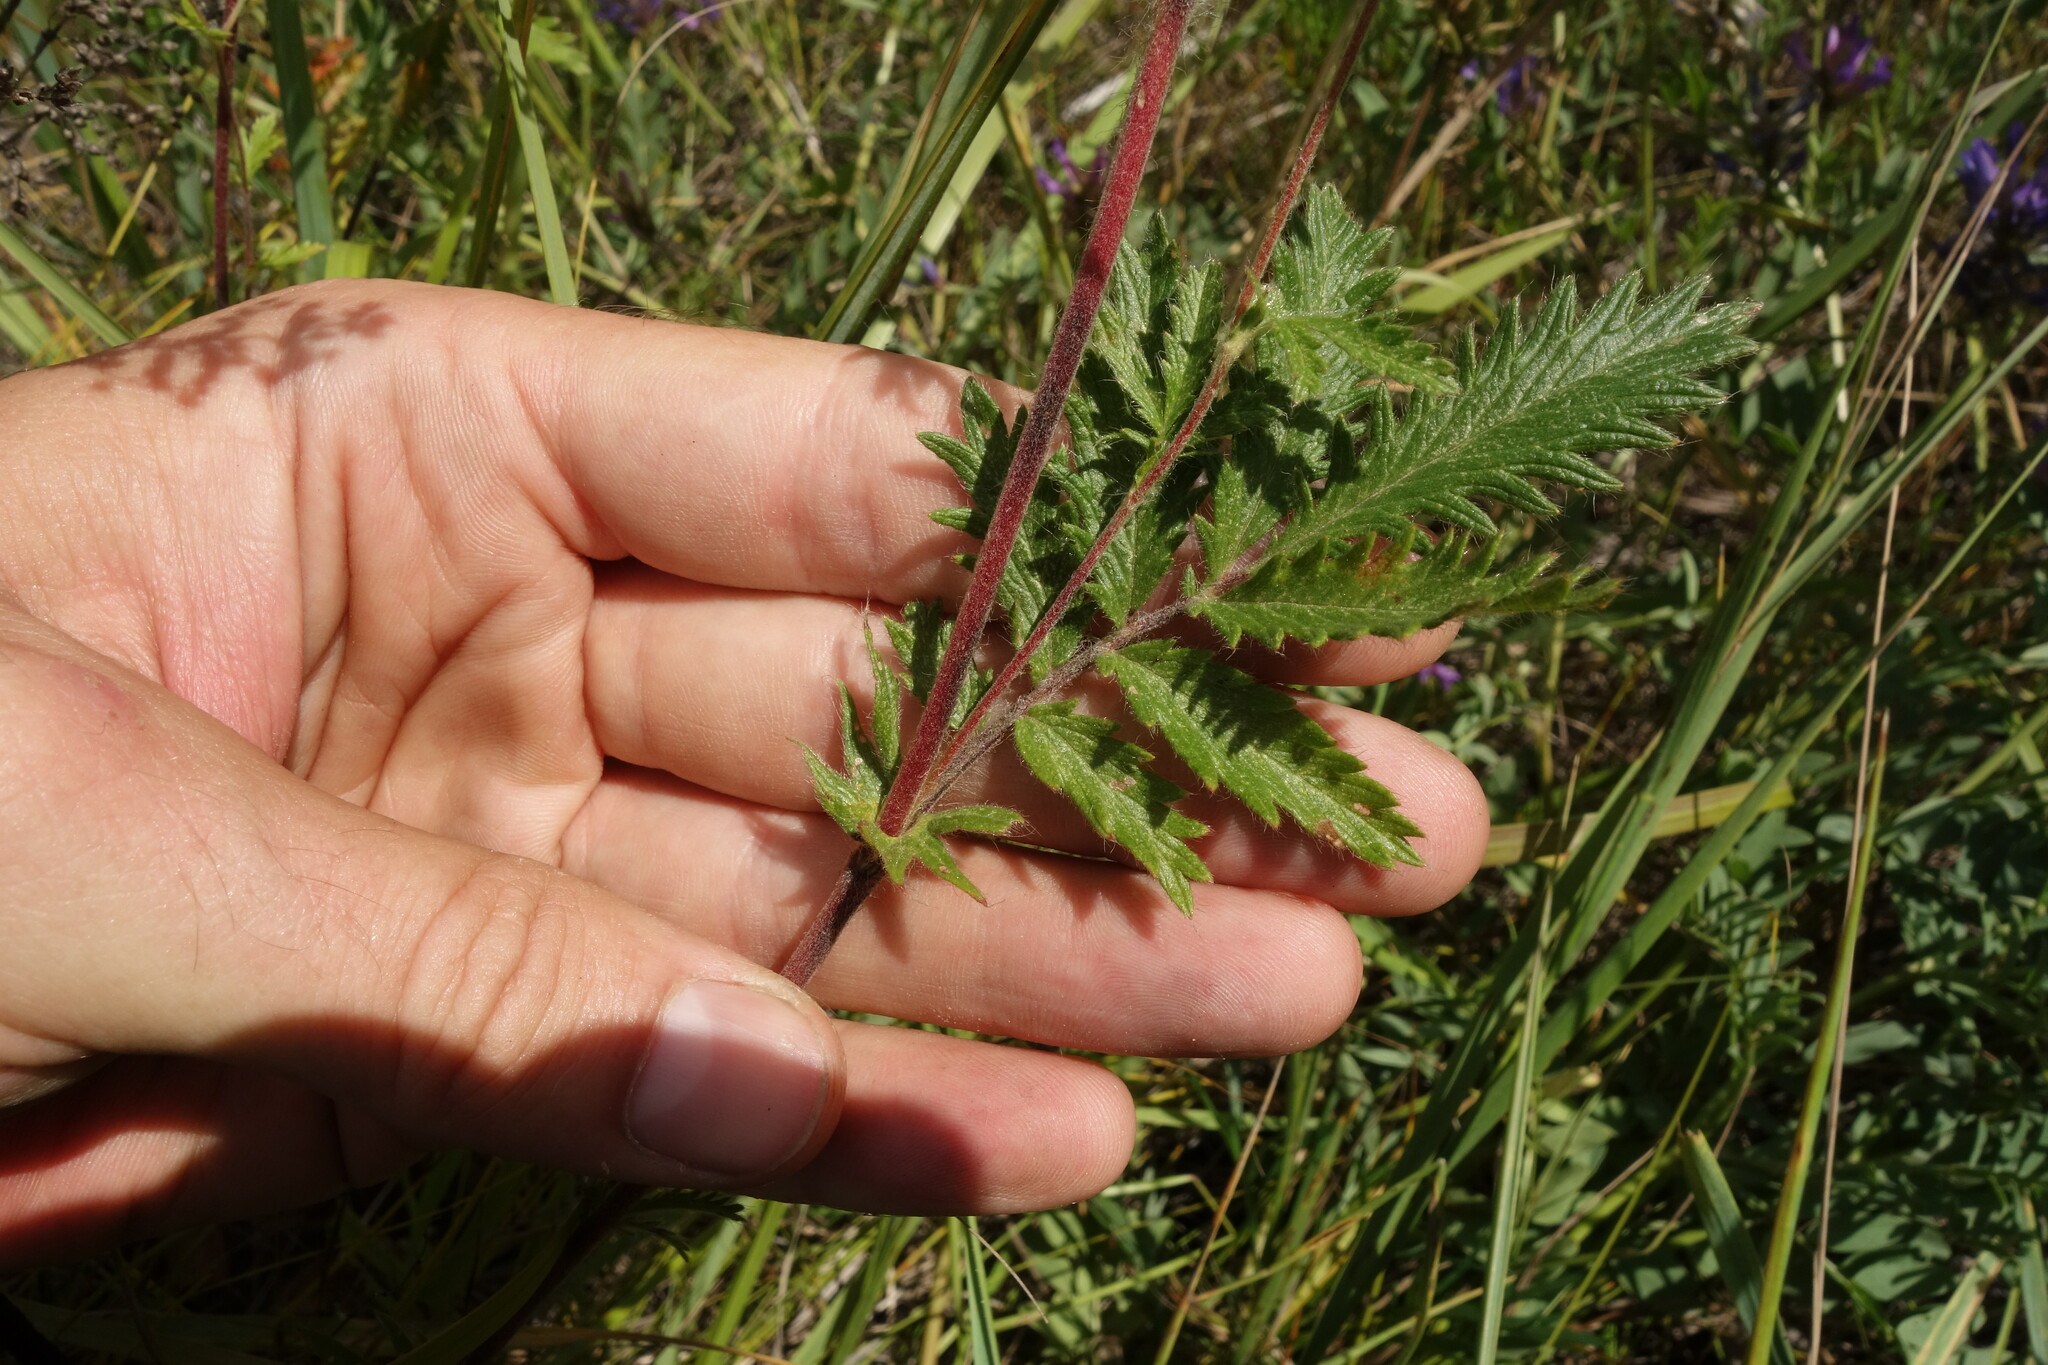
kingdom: Plantae
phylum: Tracheophyta
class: Magnoliopsida
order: Rosales
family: Rosaceae
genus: Potentilla
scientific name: Potentilla tanacetifolia
